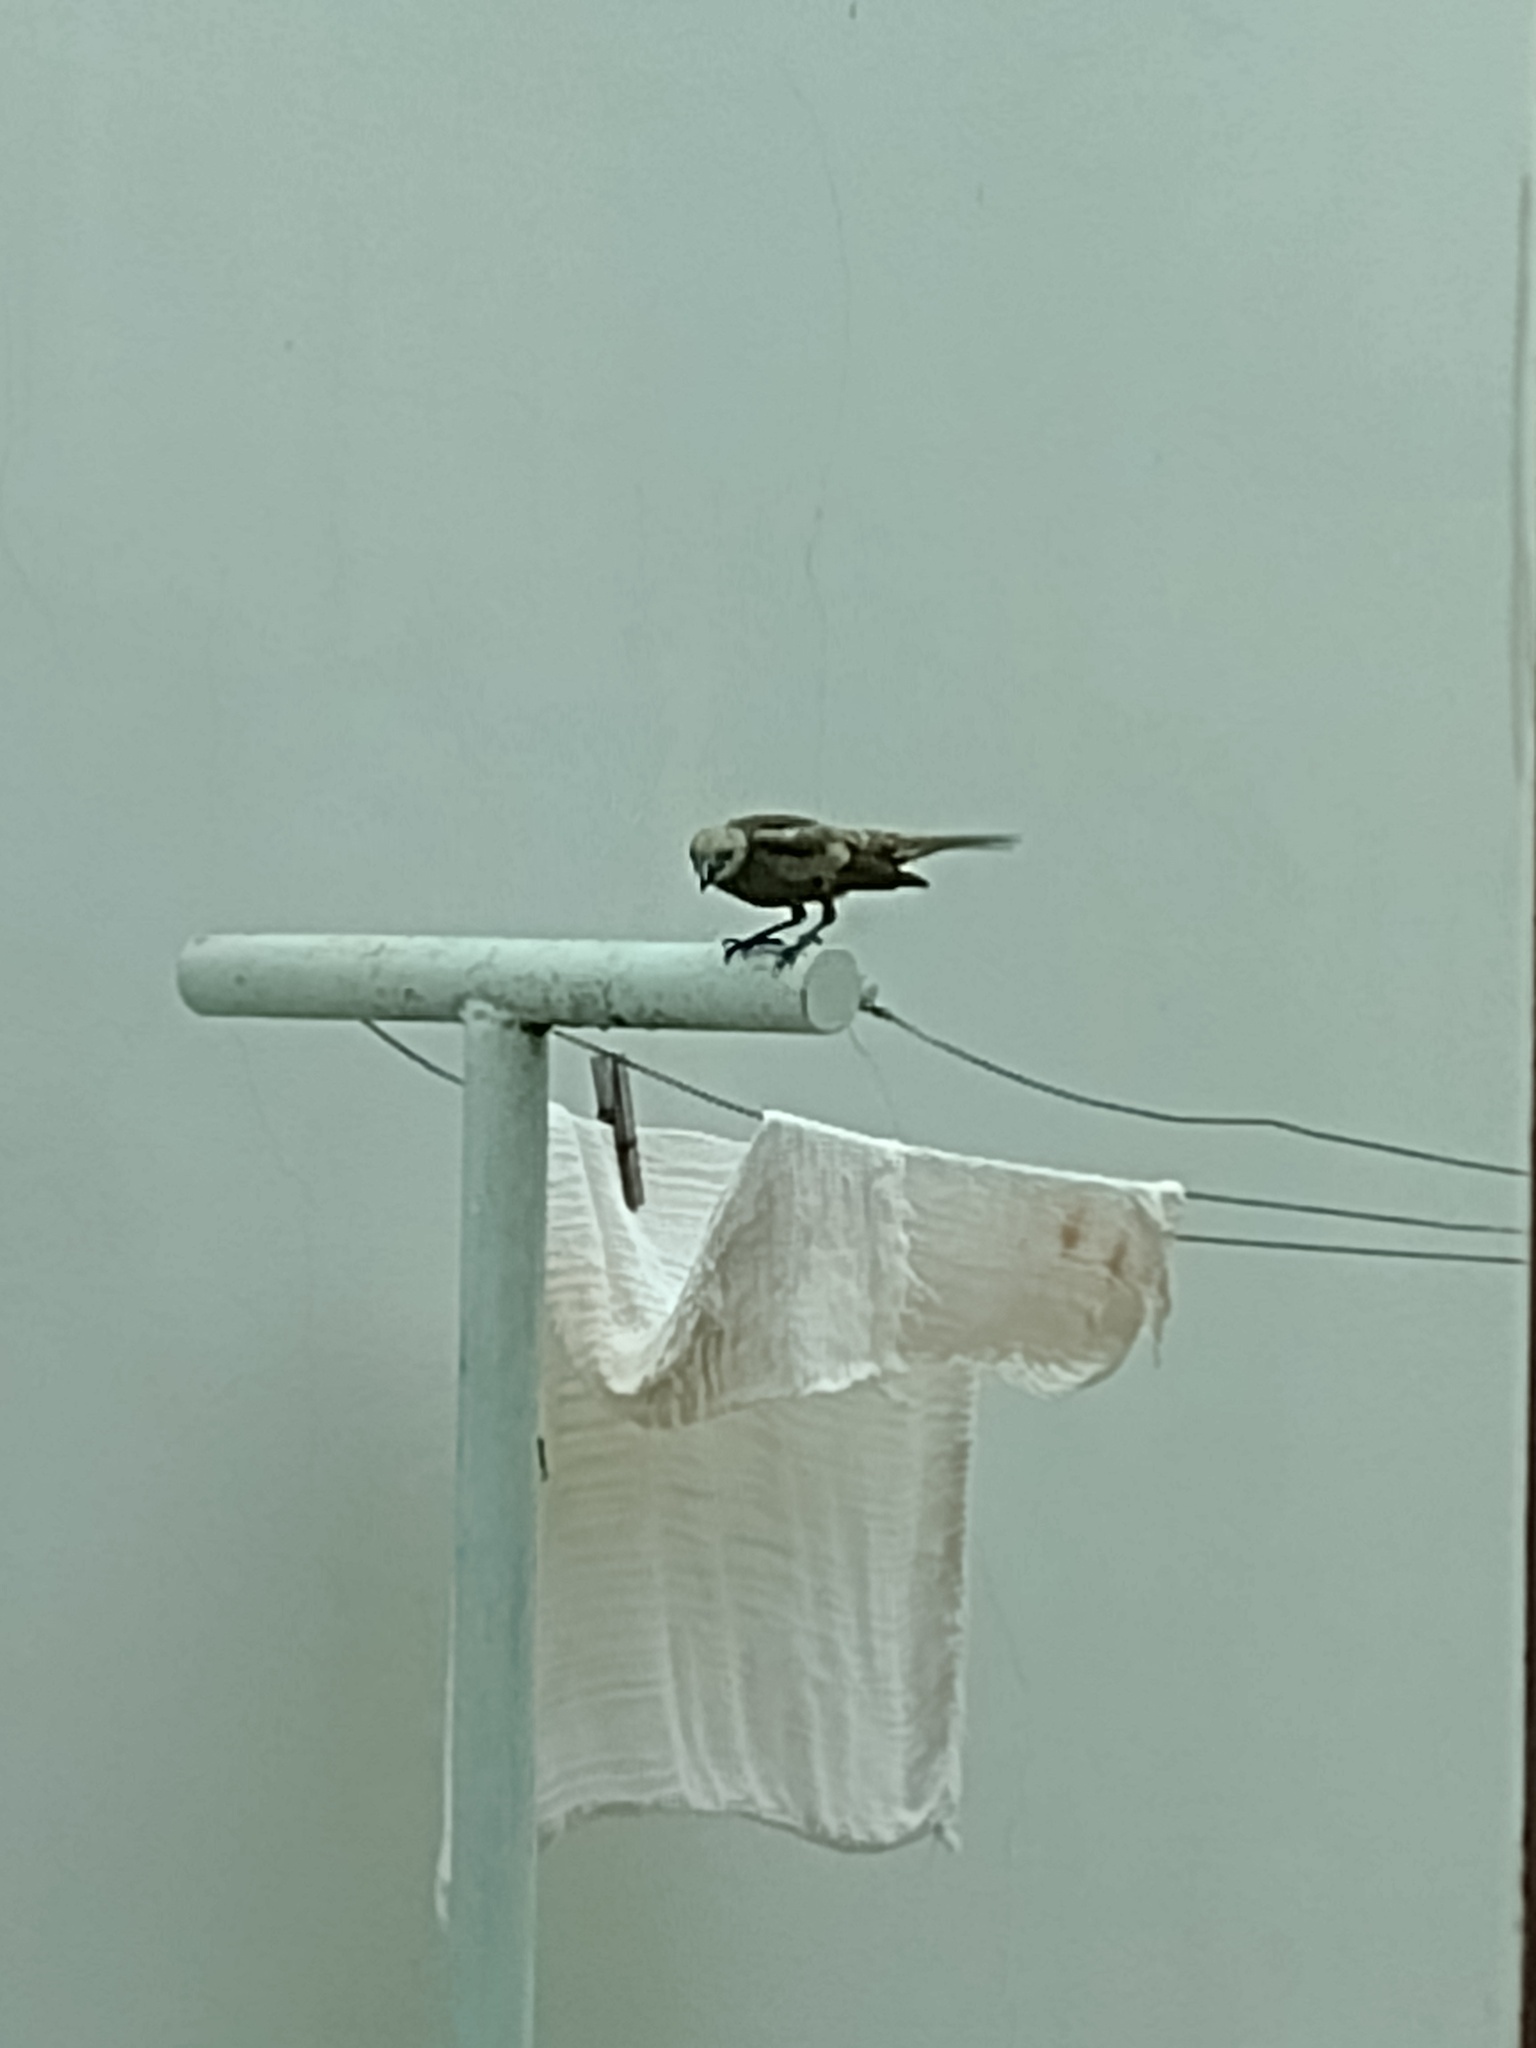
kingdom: Animalia
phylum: Chordata
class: Aves
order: Passeriformes
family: Thraupidae
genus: Thraupis
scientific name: Thraupis palmarum
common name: Palm tanager
